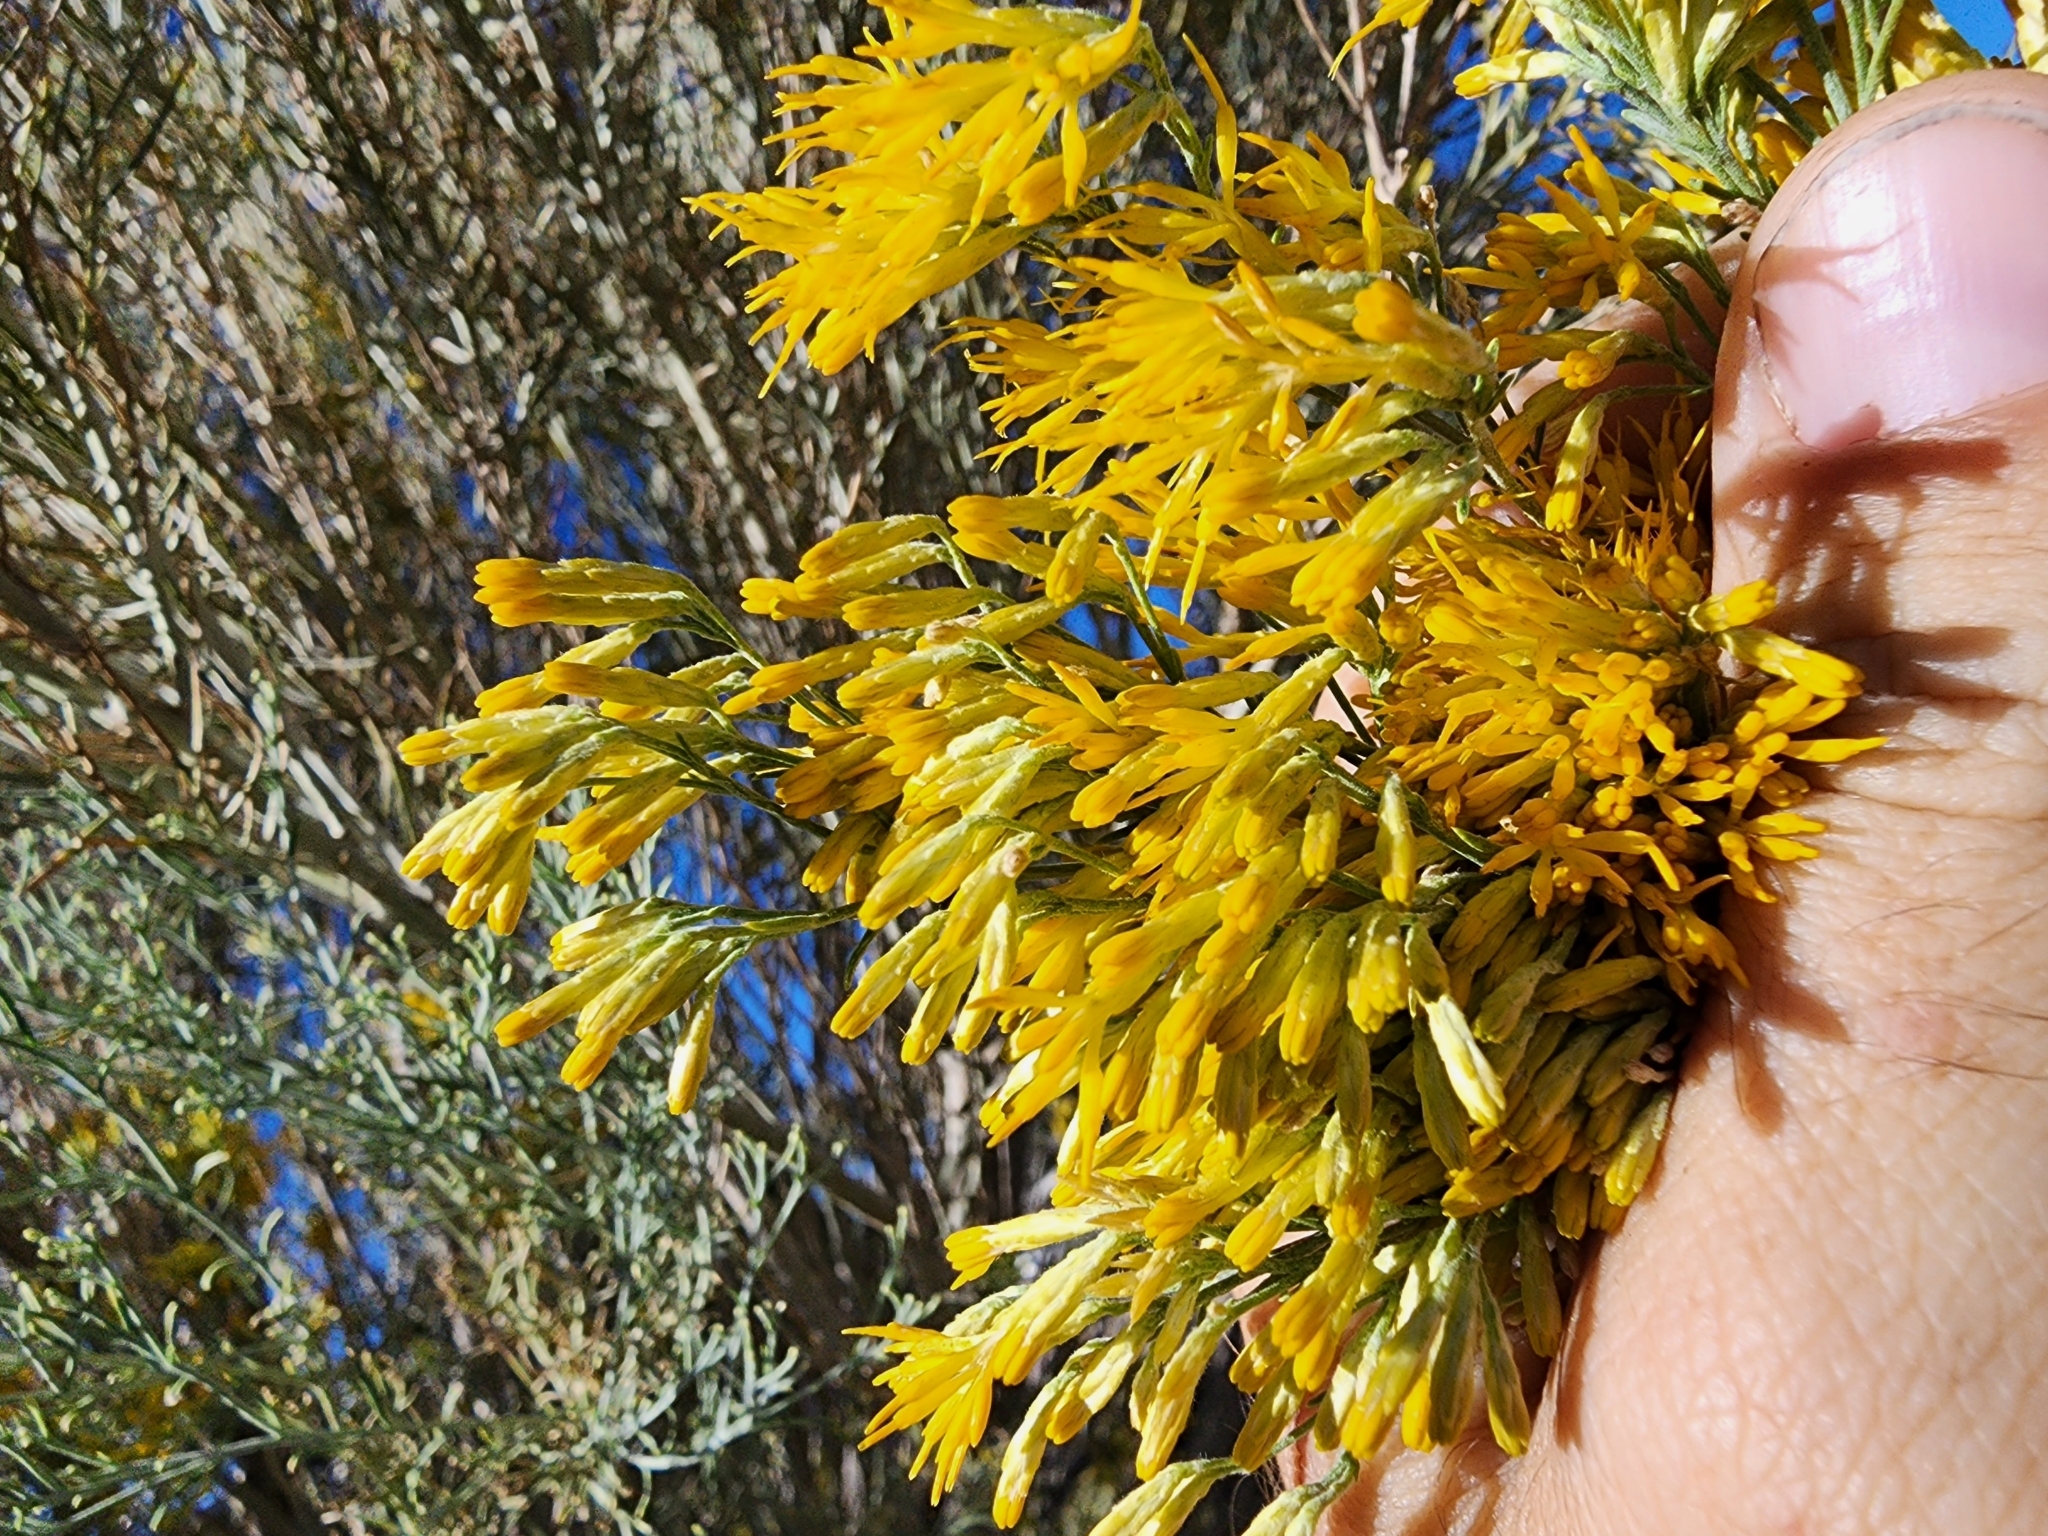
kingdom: Plantae
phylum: Tracheophyta
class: Magnoliopsida
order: Asterales
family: Asteraceae
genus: Ericameria
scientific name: Ericameria nauseosa
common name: Rubber rabbitbrush
